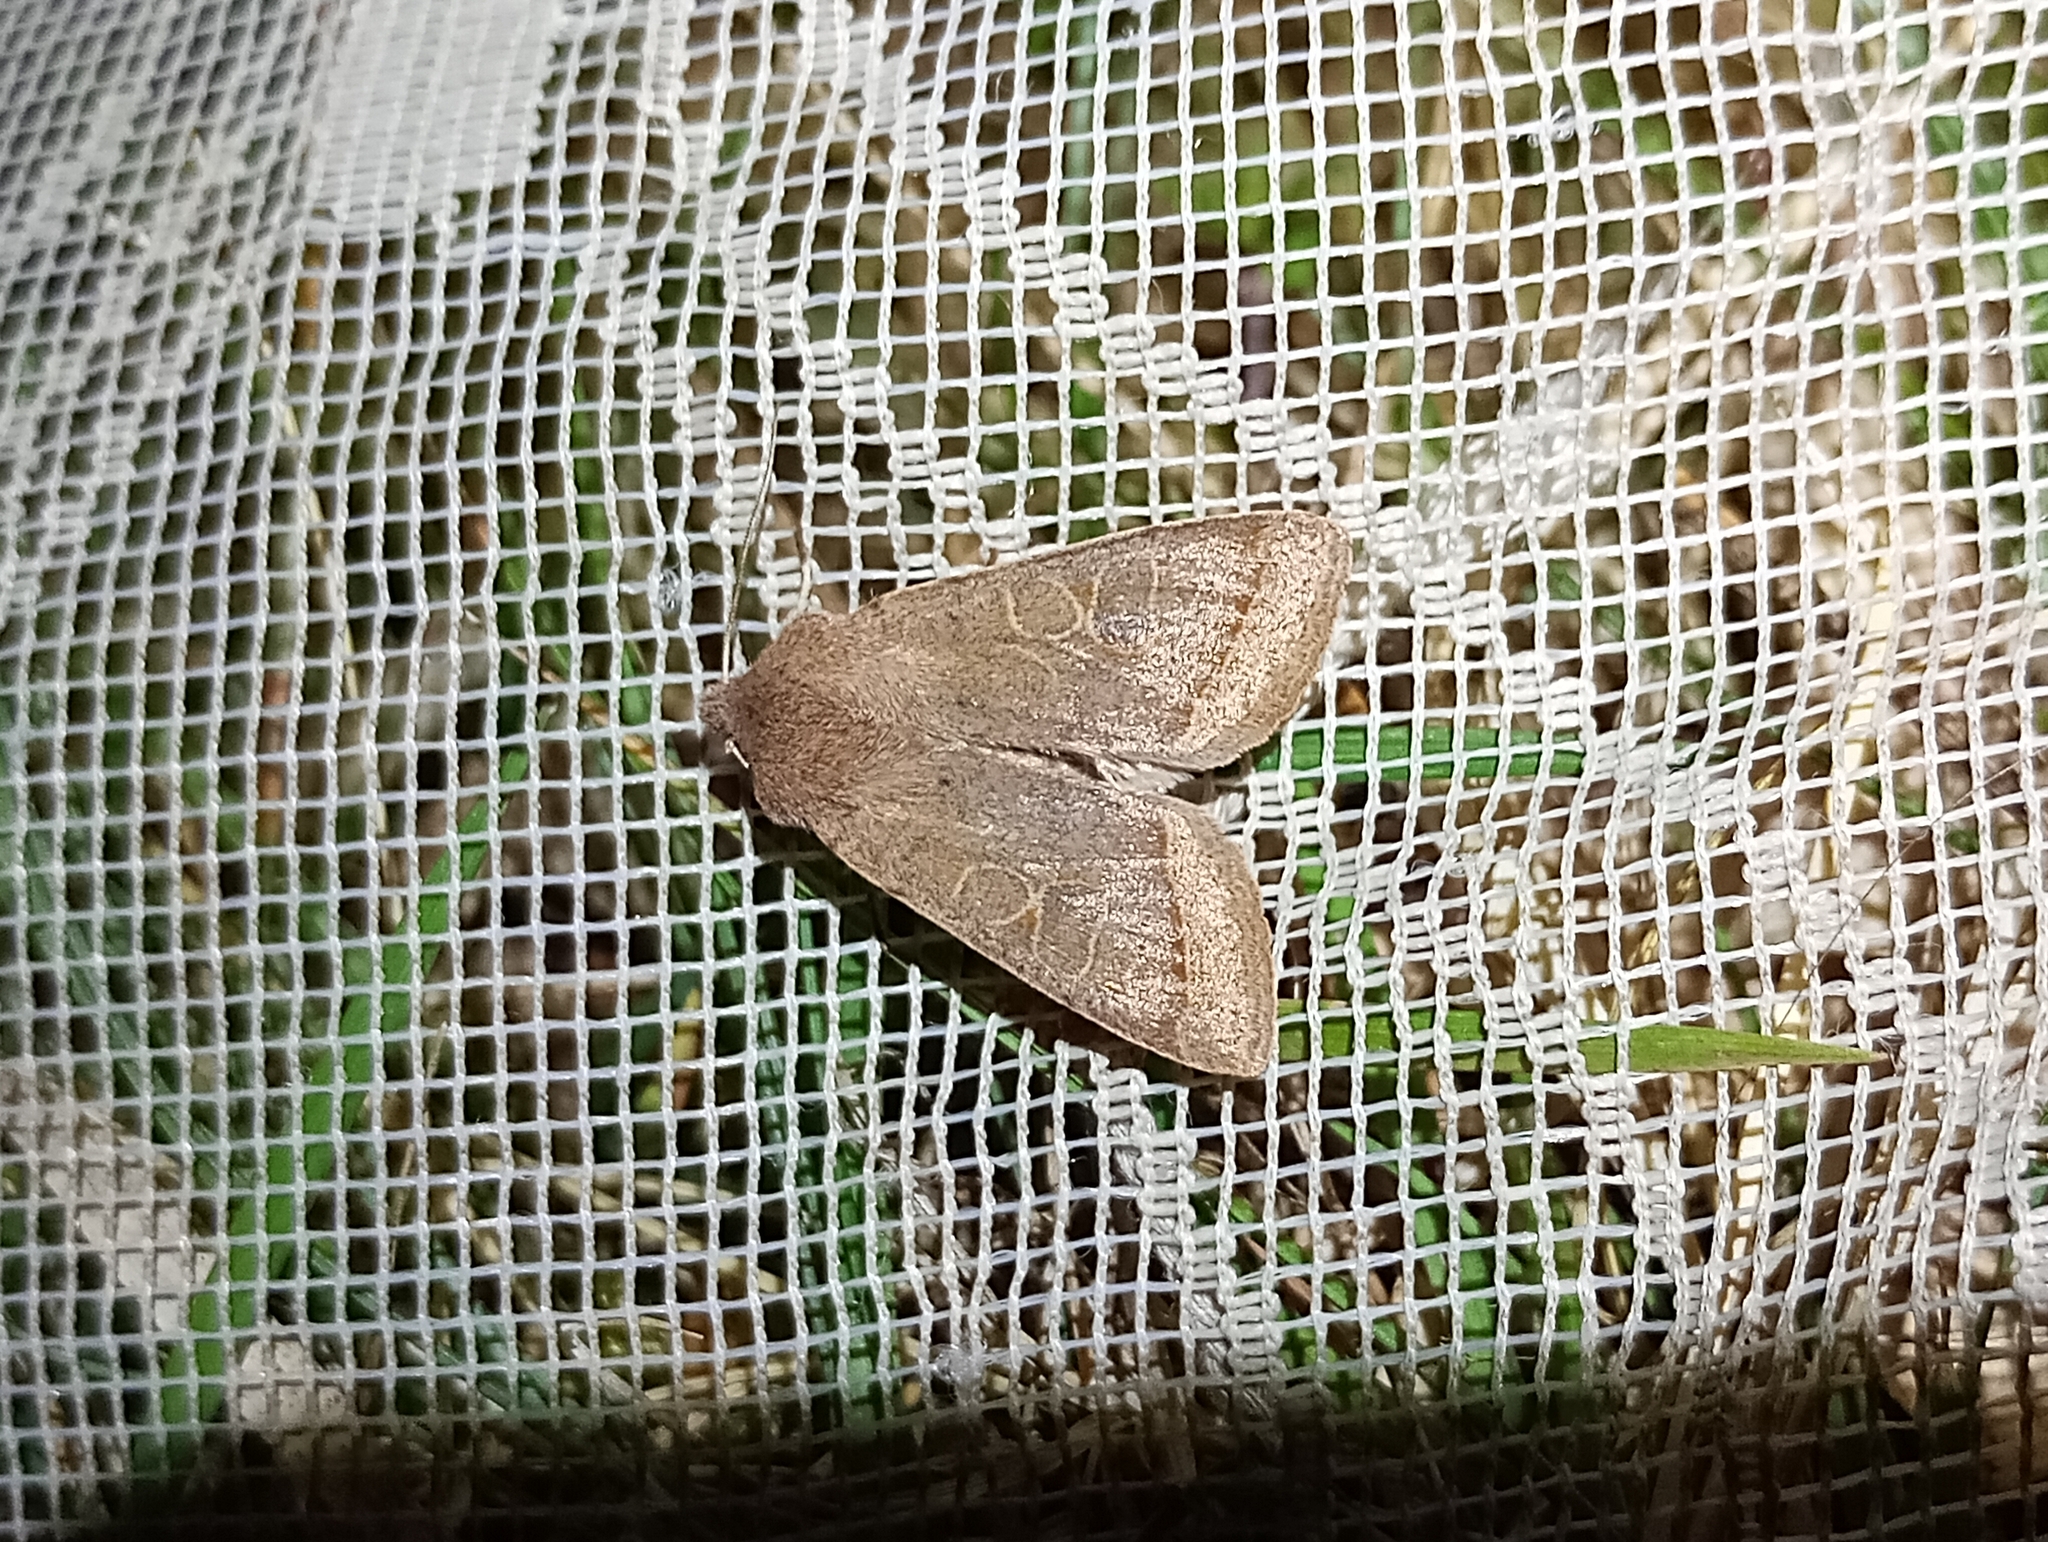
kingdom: Animalia
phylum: Arthropoda
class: Insecta
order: Lepidoptera
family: Noctuidae
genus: Orthosia
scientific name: Orthosia cerasi
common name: Common quaker
